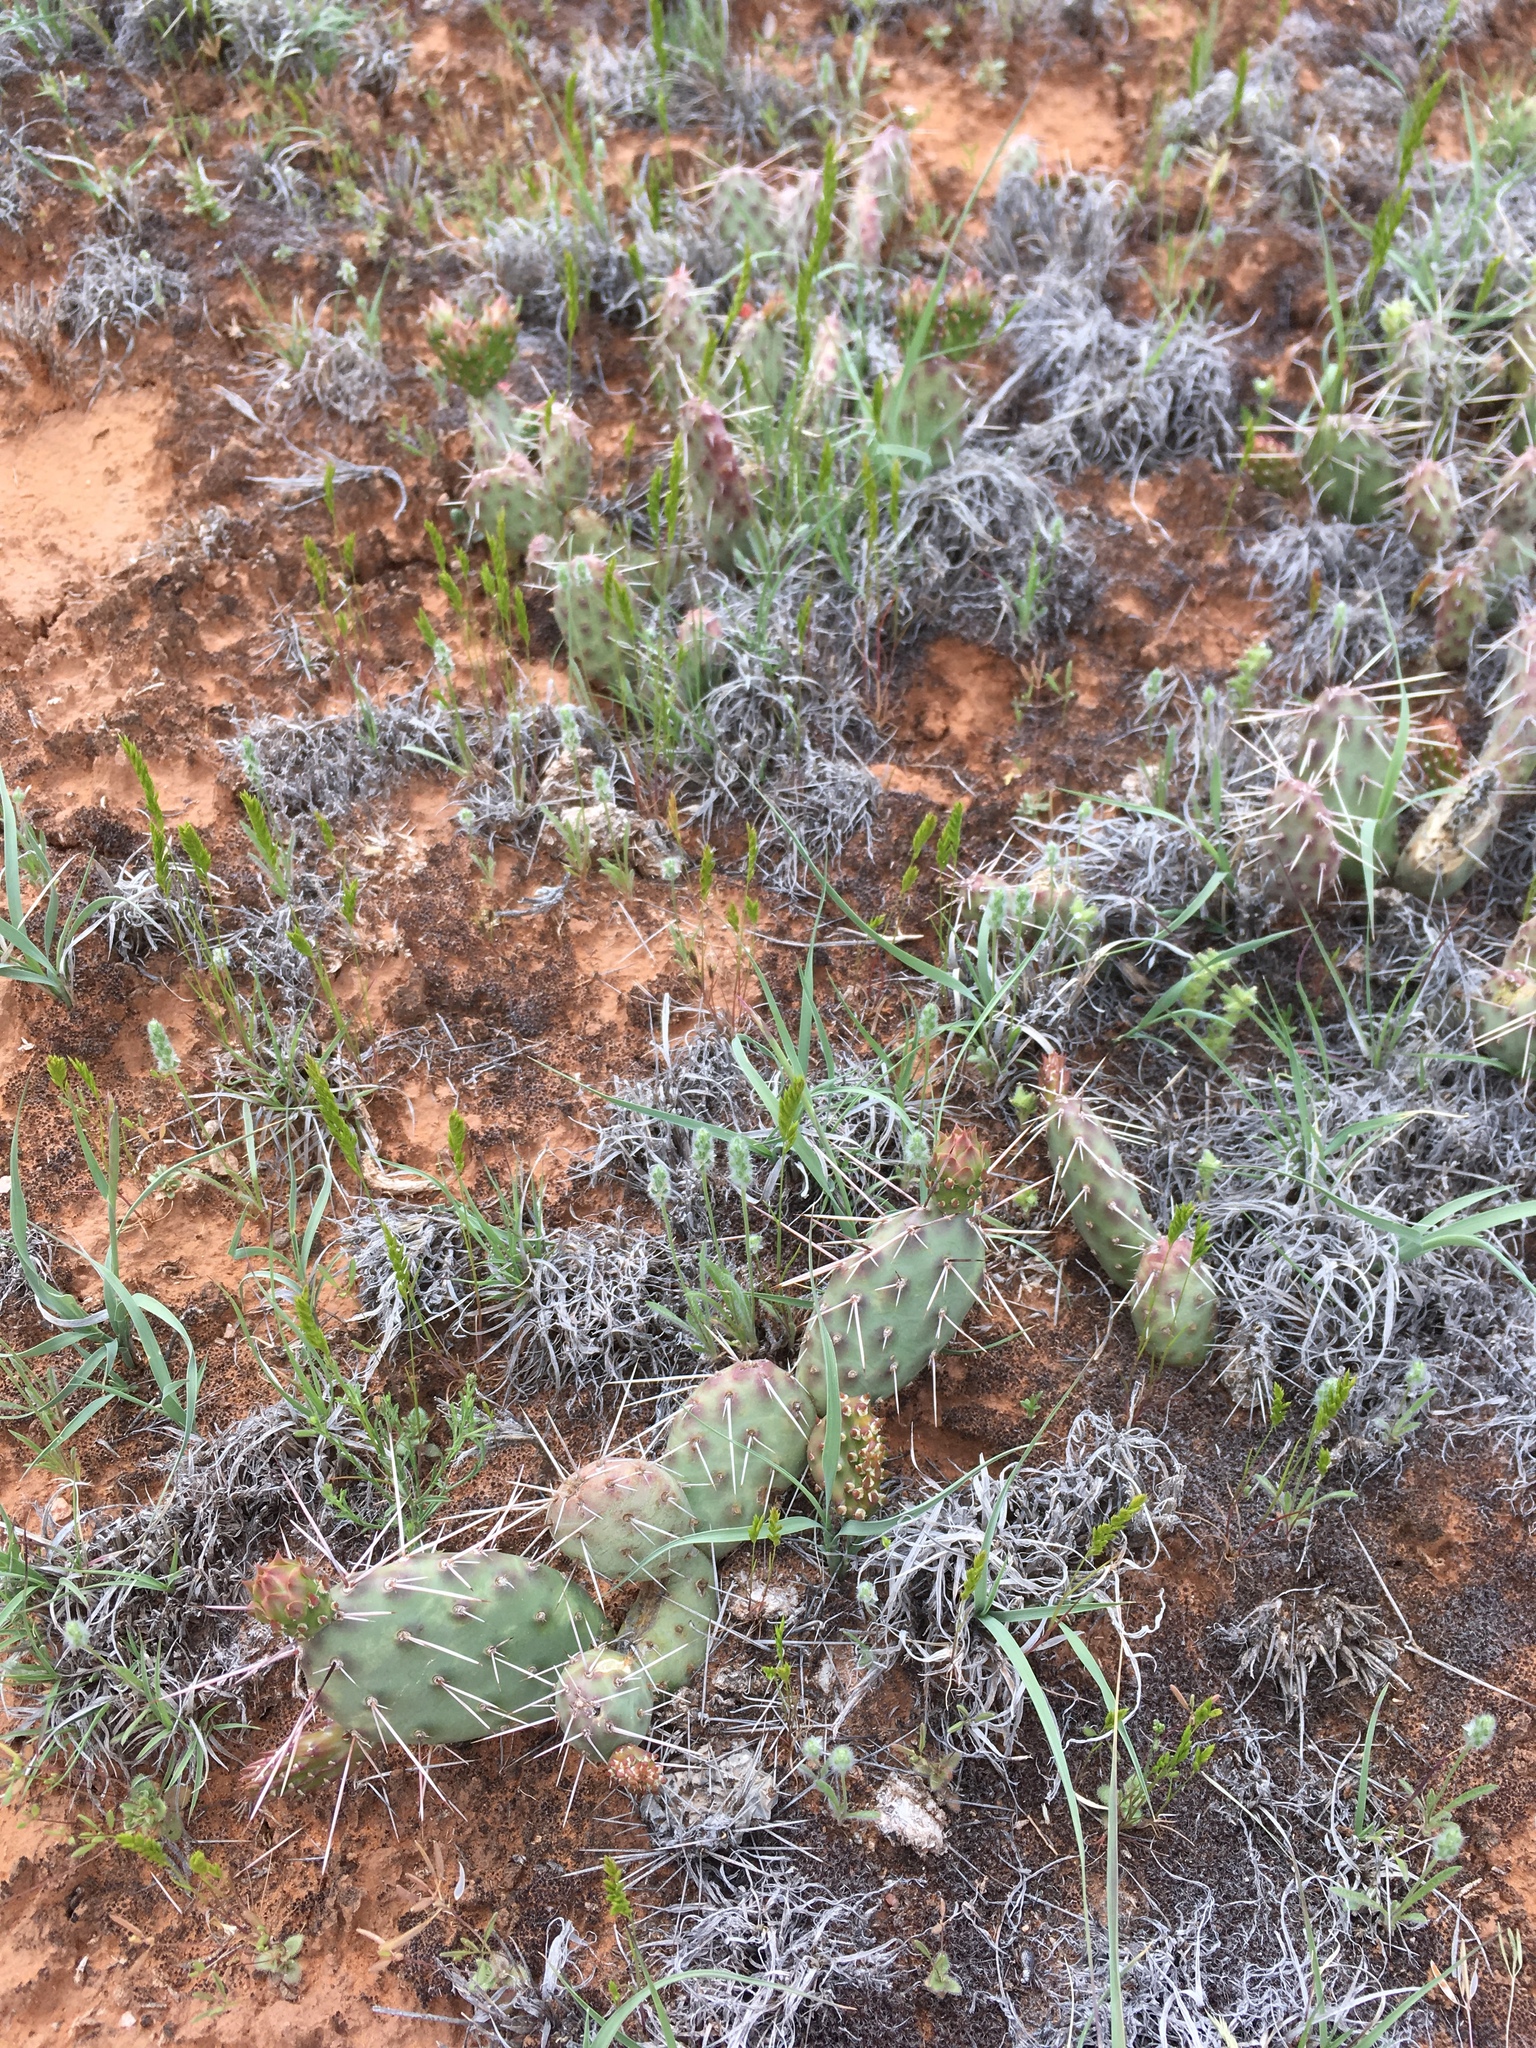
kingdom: Plantae
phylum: Tracheophyta
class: Magnoliopsida
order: Caryophyllales
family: Cactaceae
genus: Opuntia
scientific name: Opuntia polyacantha
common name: Plains prickly-pear
